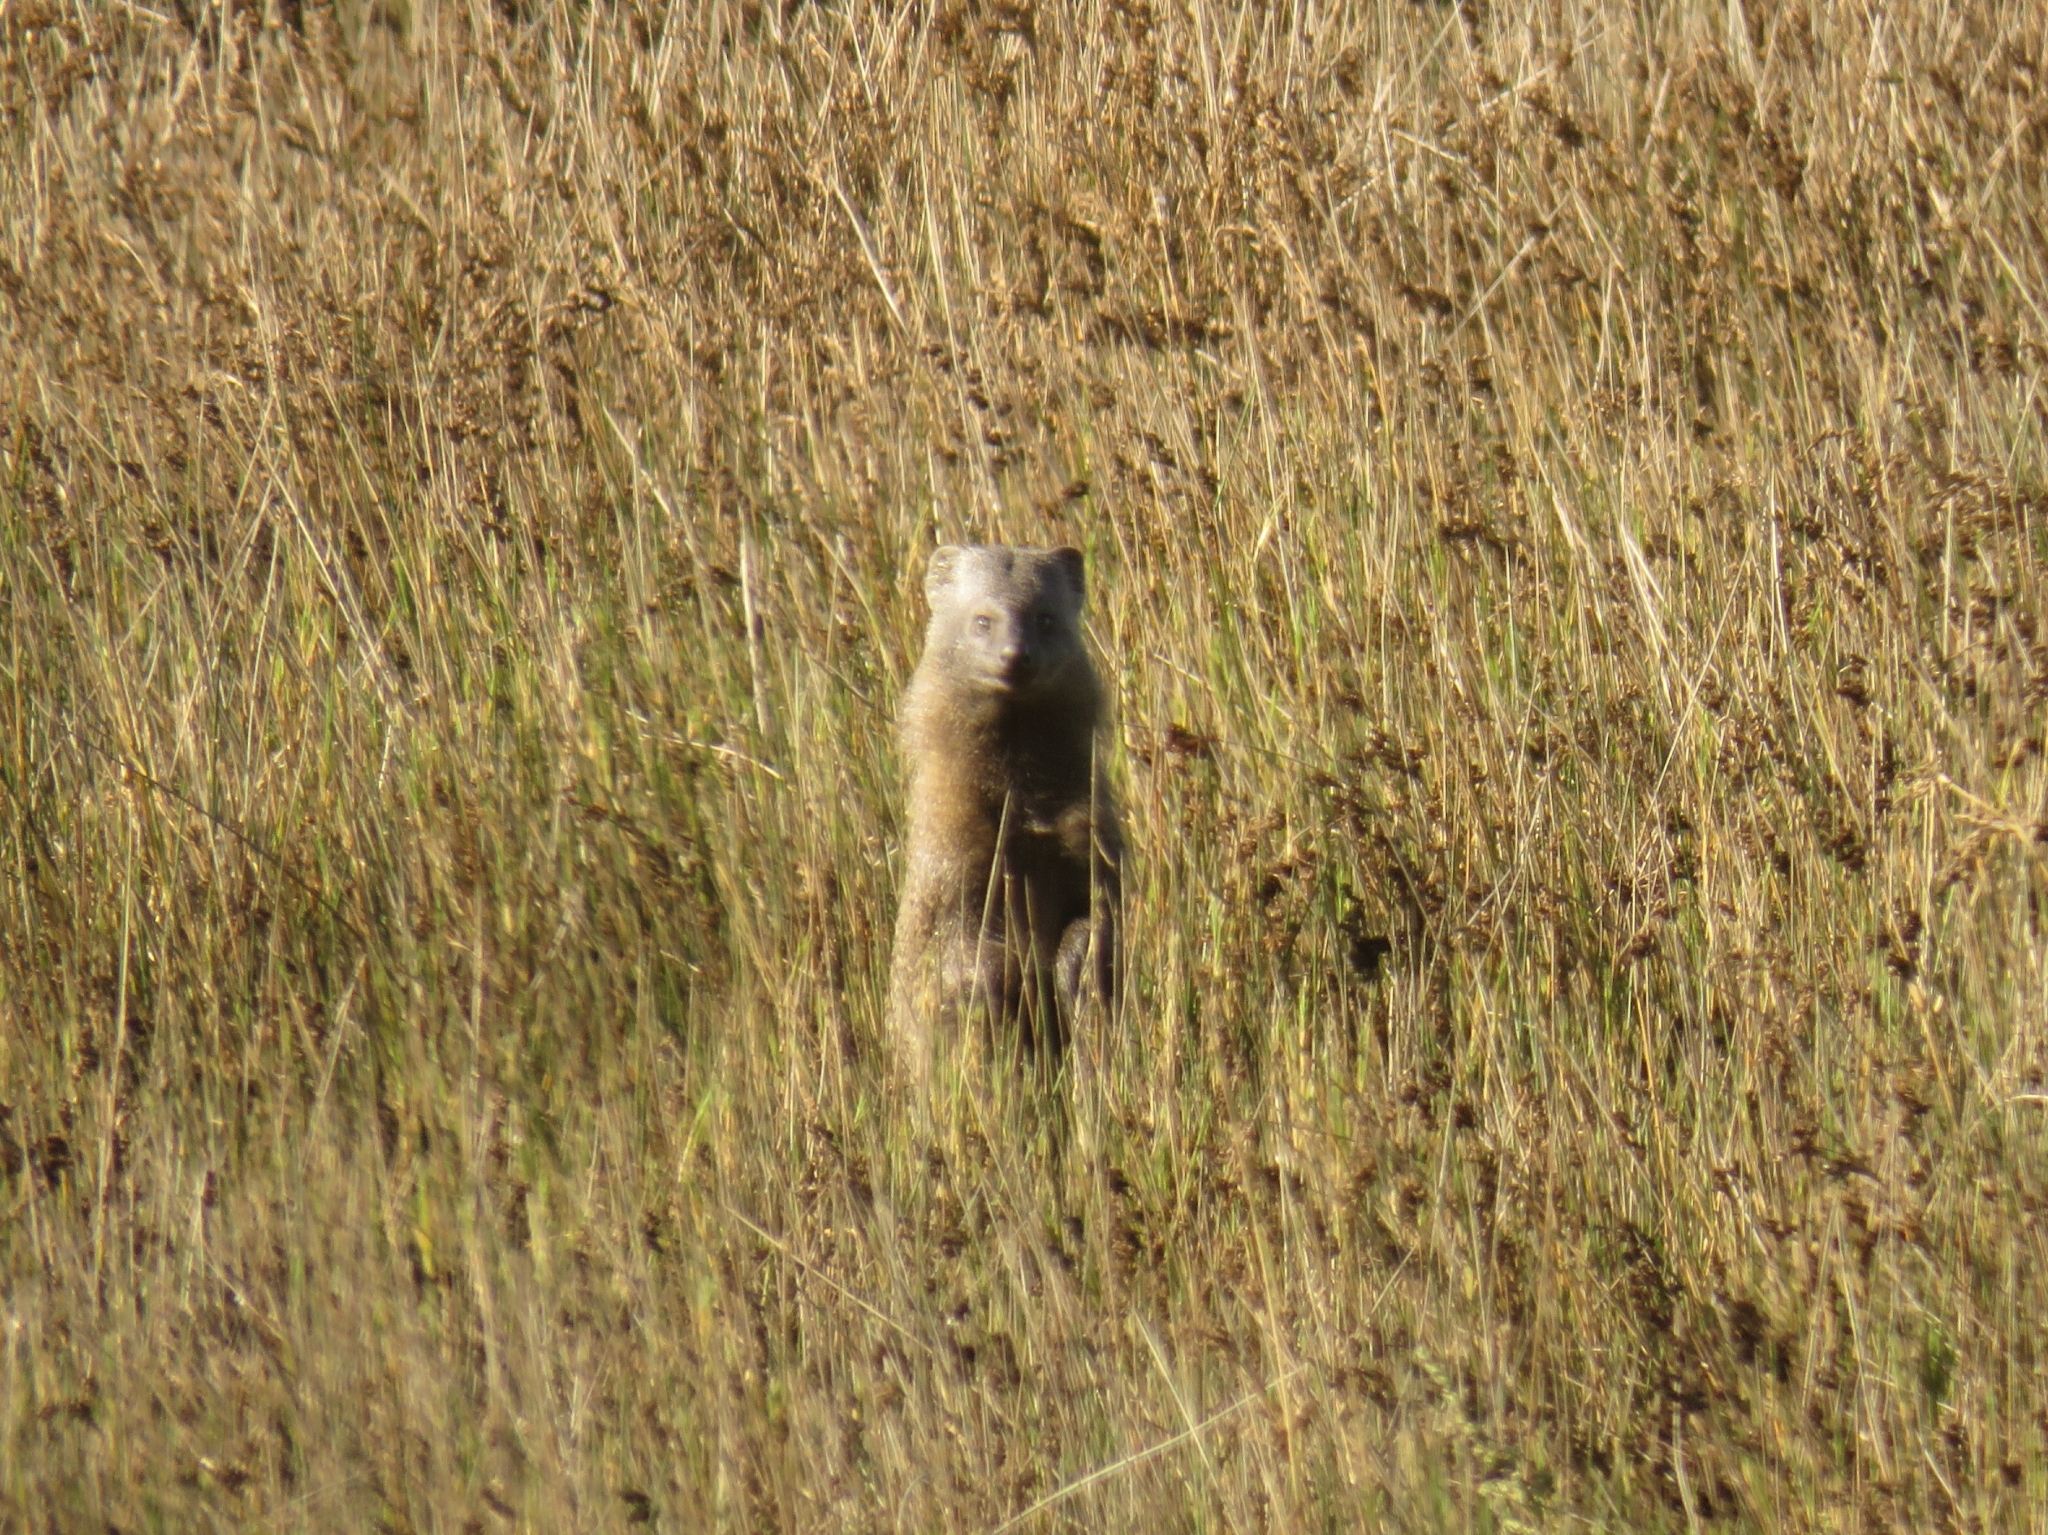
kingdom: Animalia
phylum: Chordata
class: Mammalia
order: Carnivora
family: Herpestidae
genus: Herpestes
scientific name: Herpestes ichneumon
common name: Egyptian mongoose
